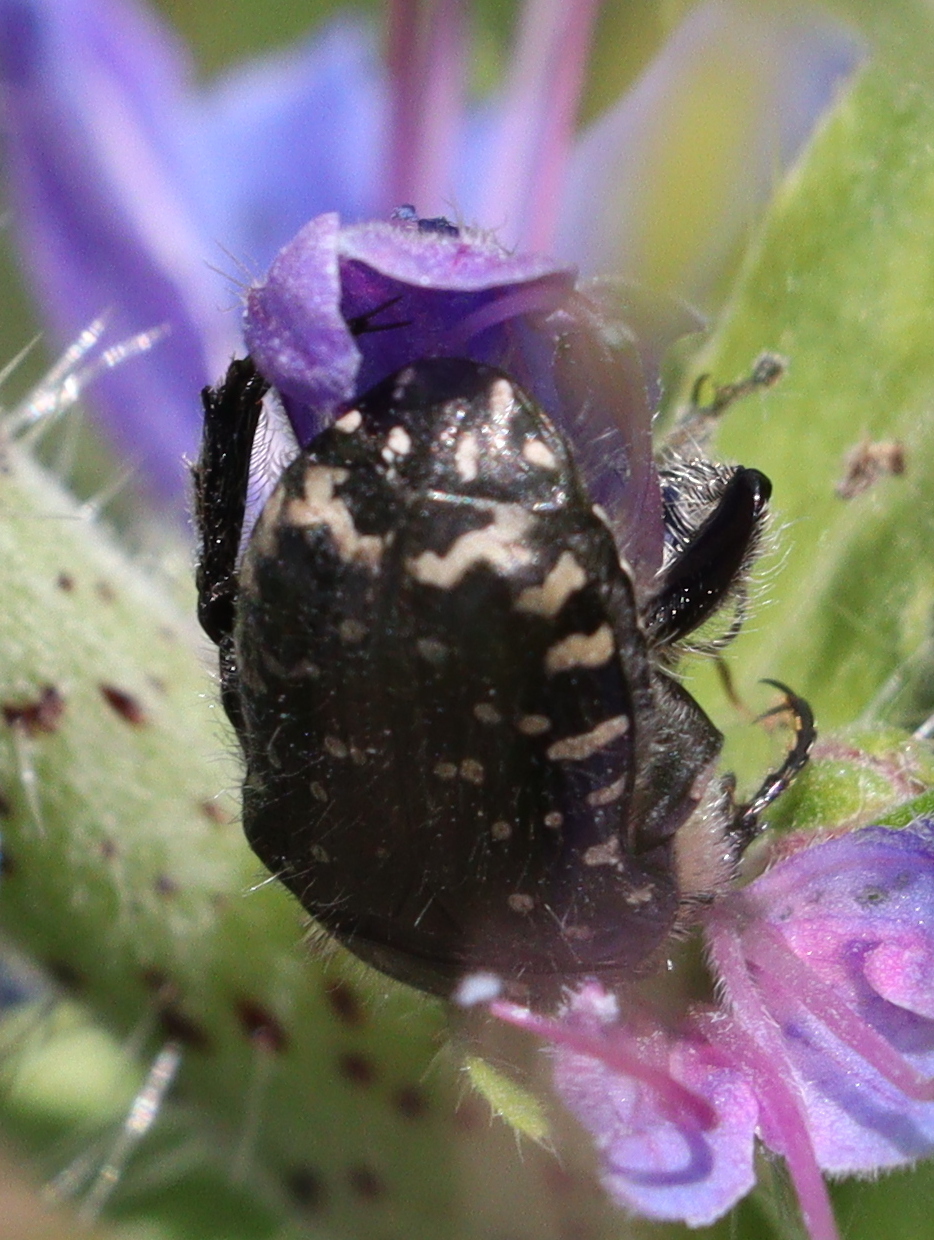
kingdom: Animalia
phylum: Arthropoda
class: Insecta
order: Coleoptera
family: Scarabaeidae
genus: Oxythyrea
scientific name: Oxythyrea funesta
